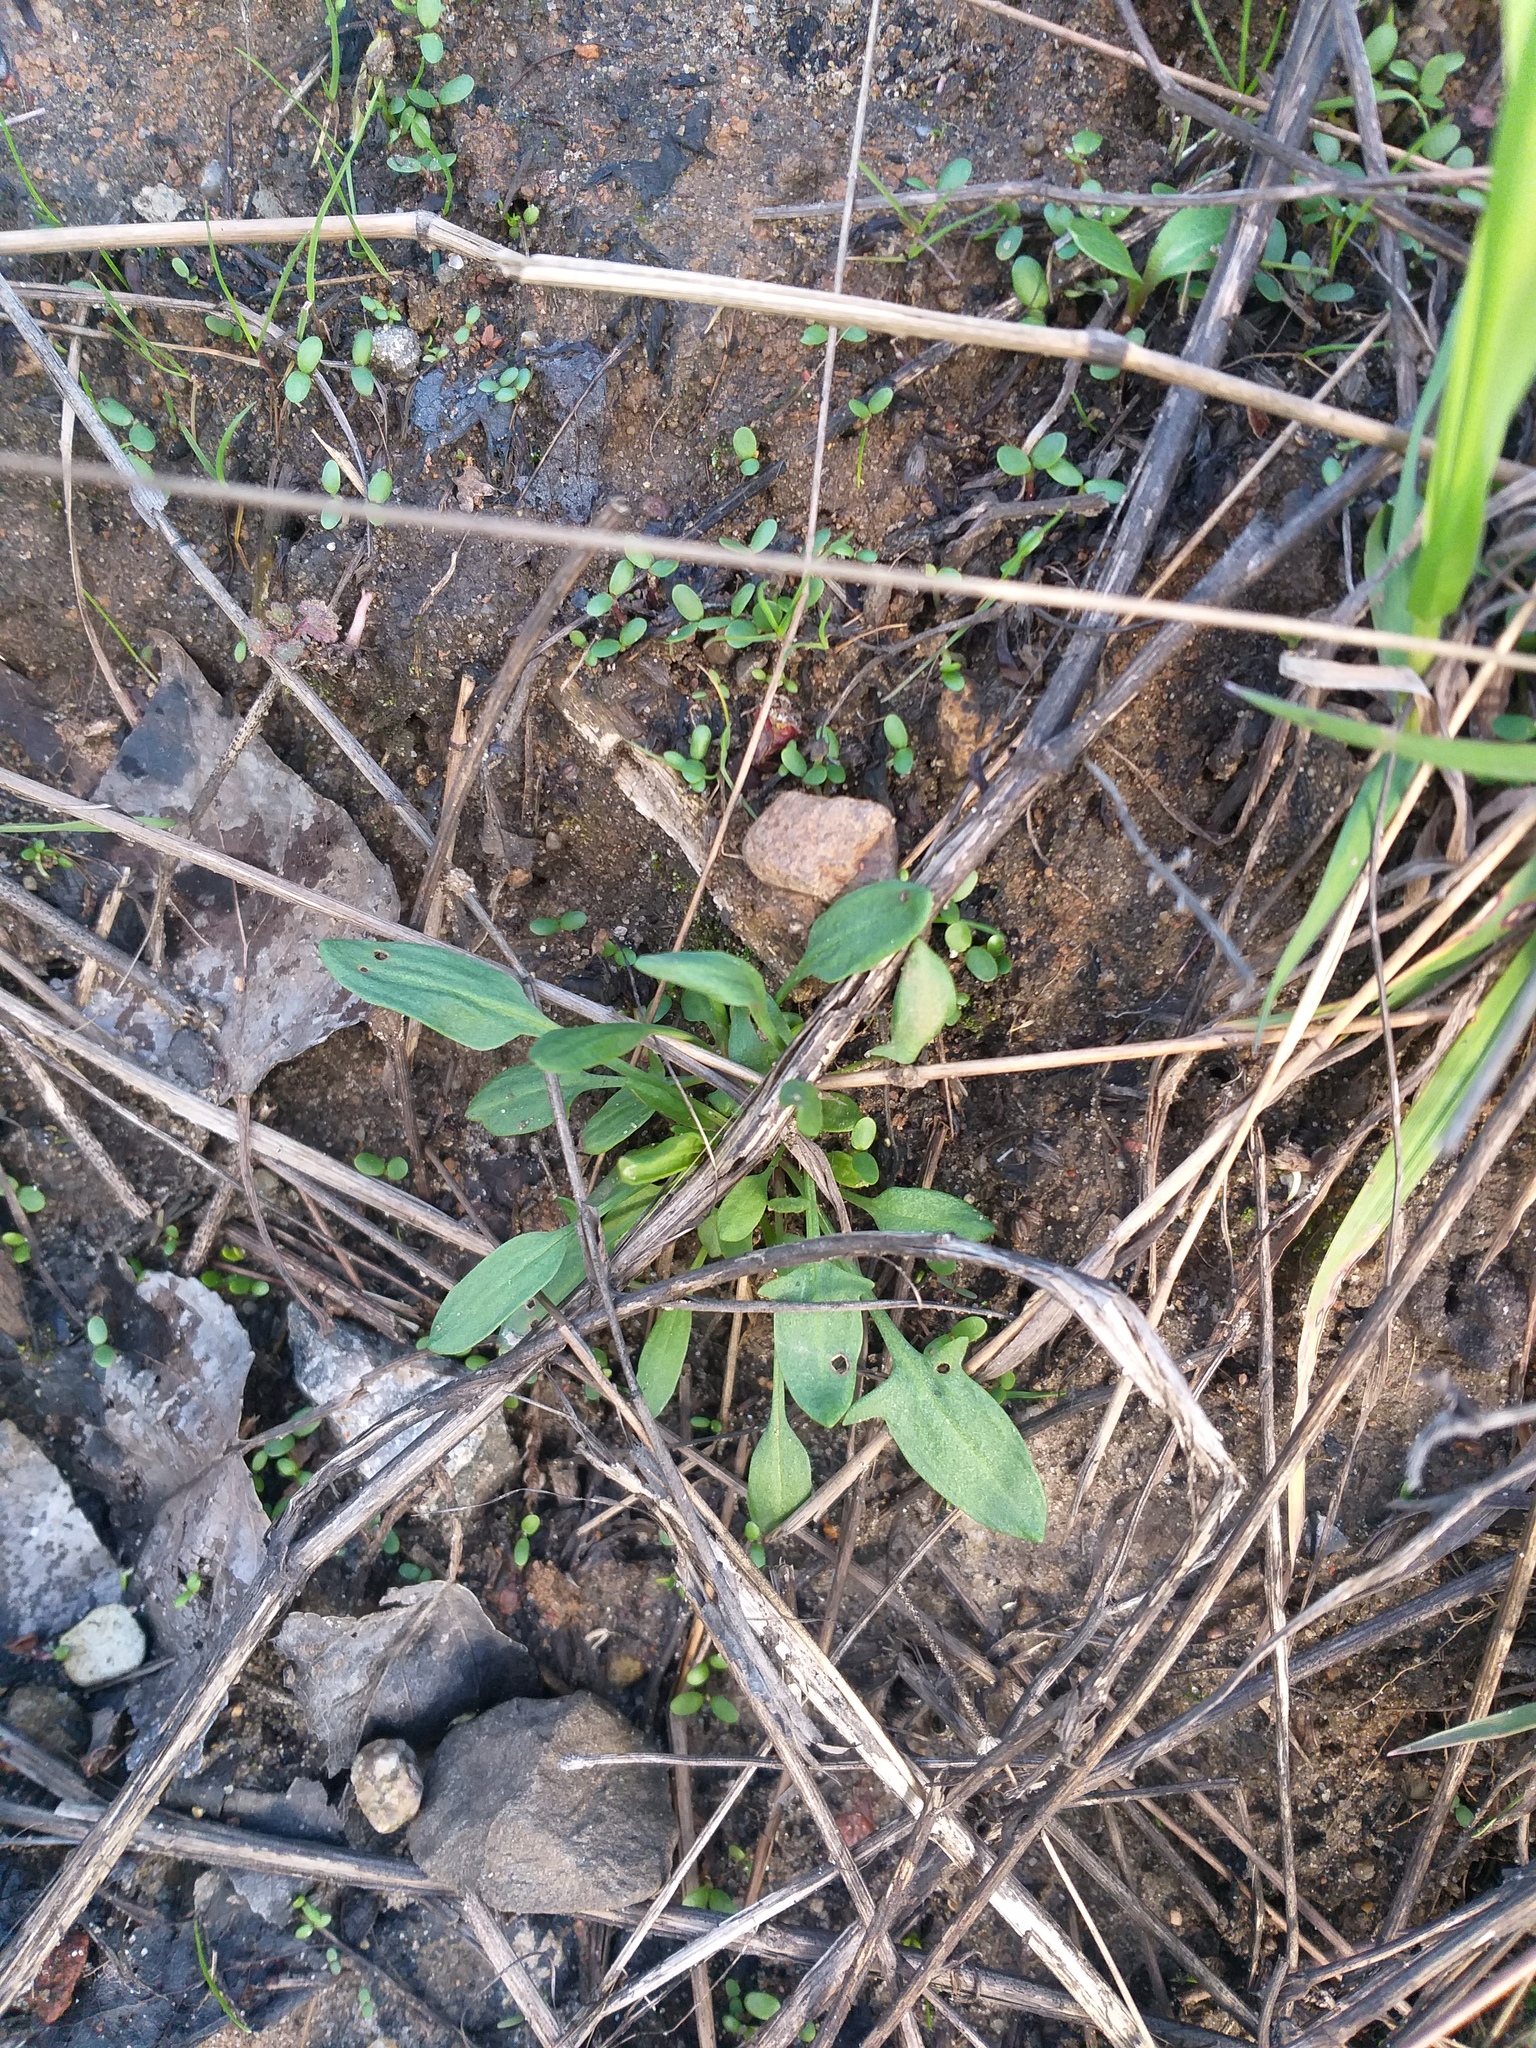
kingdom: Plantae
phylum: Tracheophyta
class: Magnoliopsida
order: Caryophyllales
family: Polygonaceae
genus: Rumex
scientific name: Rumex acetosella
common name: Common sheep sorrel
